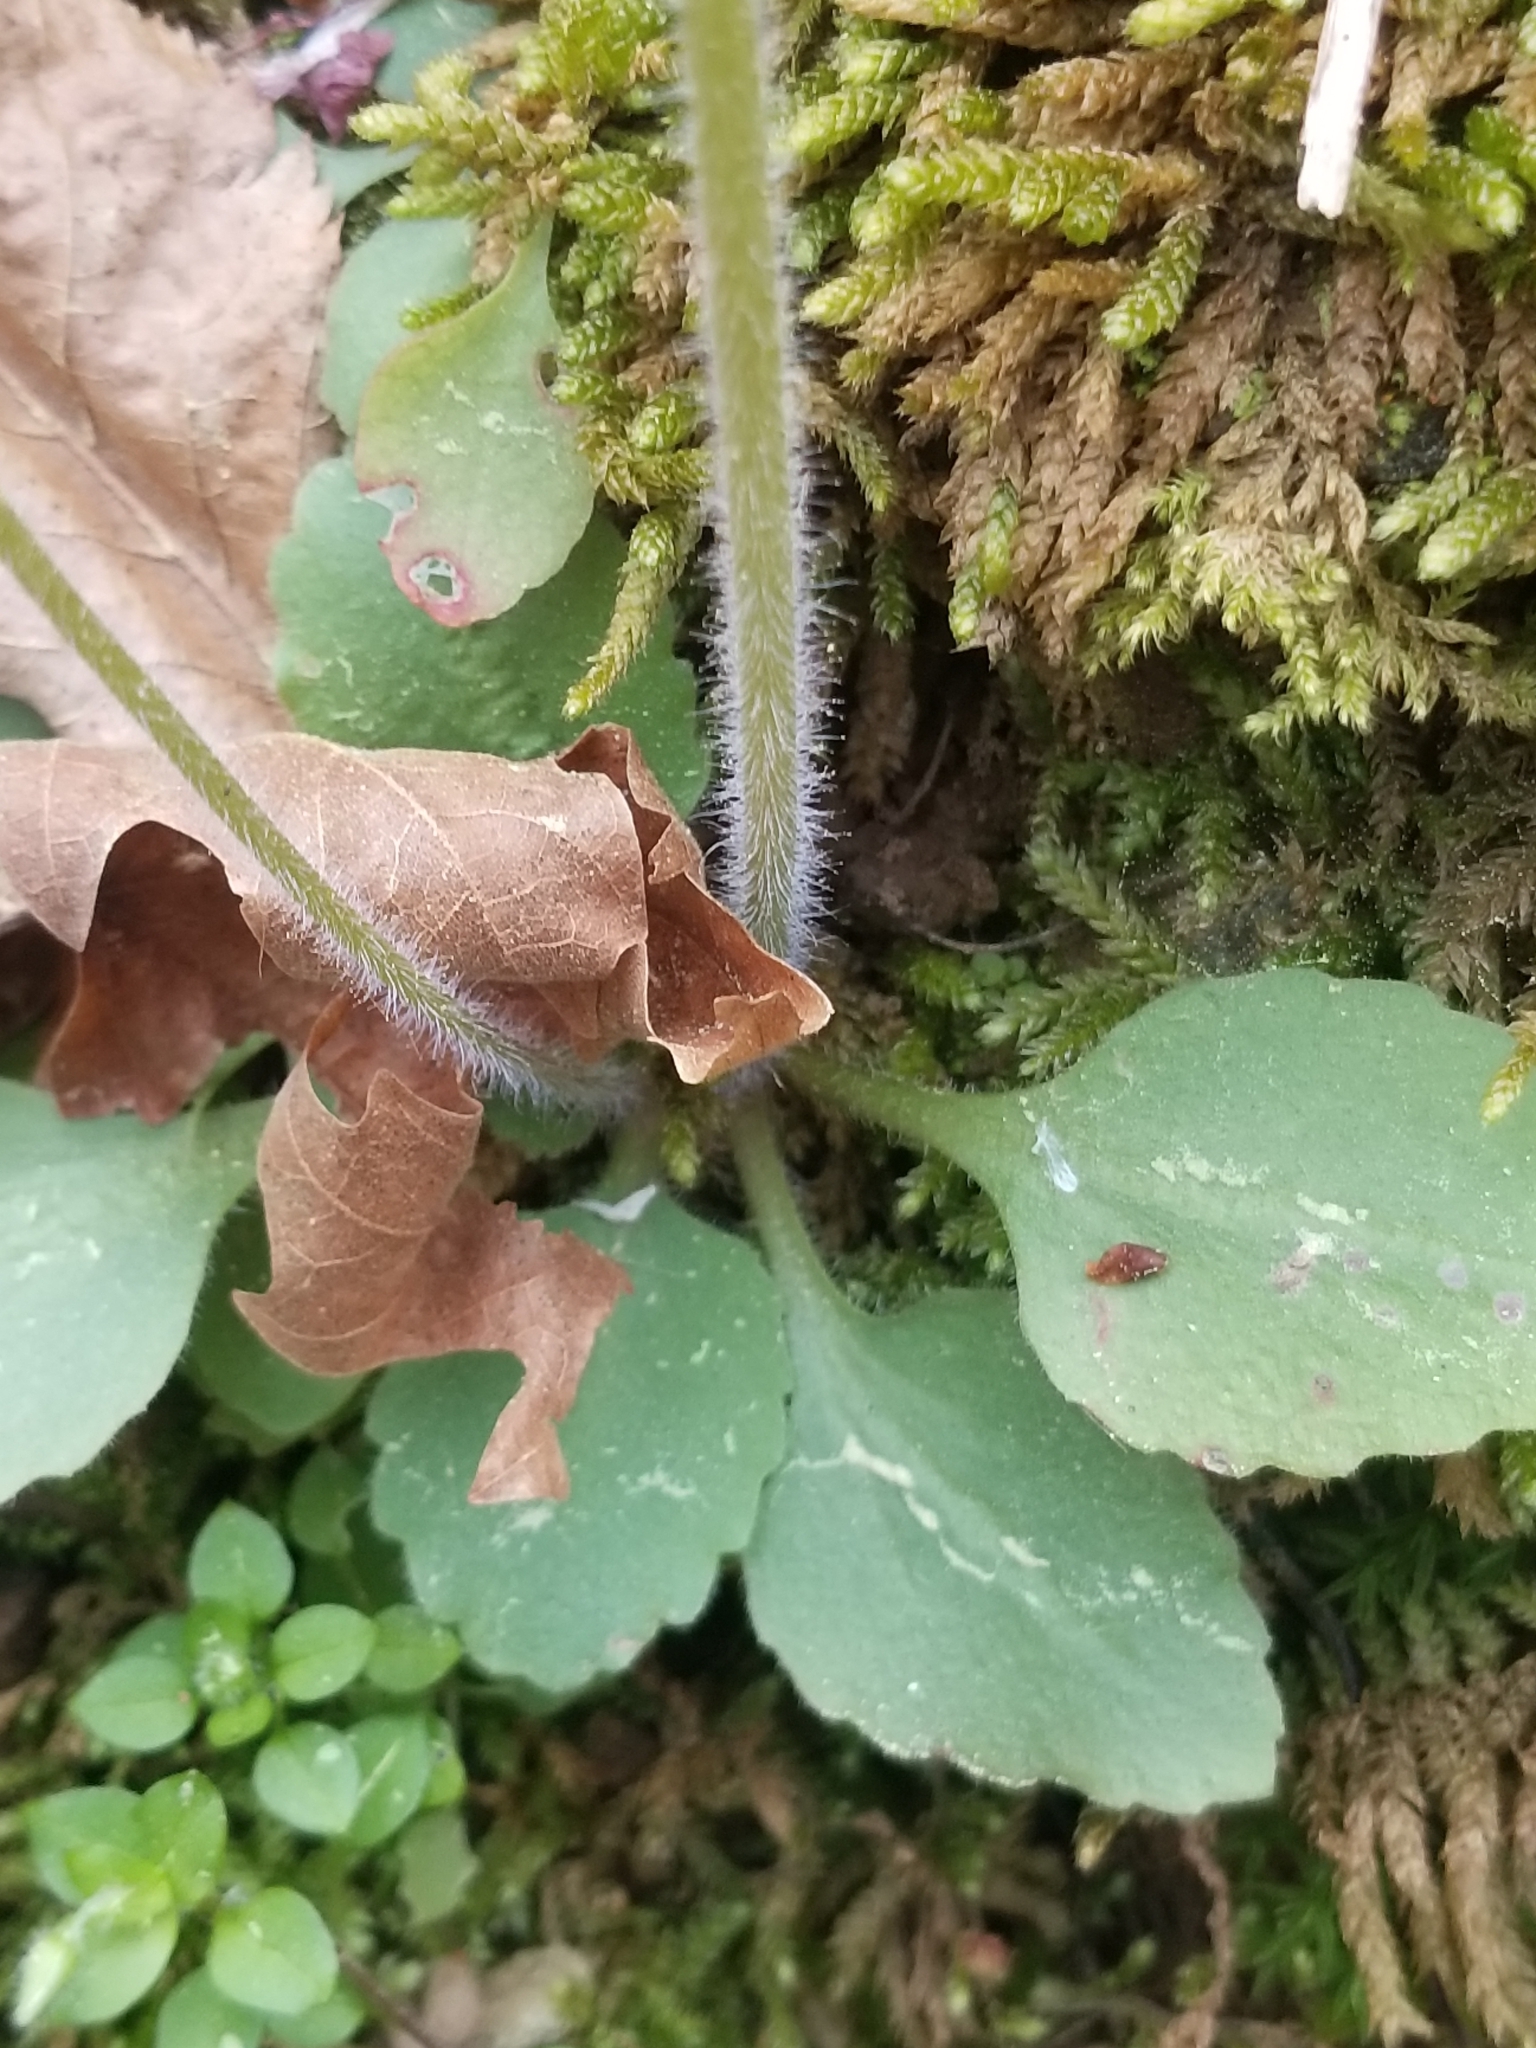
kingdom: Plantae
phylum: Tracheophyta
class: Magnoliopsida
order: Saxifragales
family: Saxifragaceae
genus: Micranthes
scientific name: Micranthes virginiensis
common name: Early saxifrage
